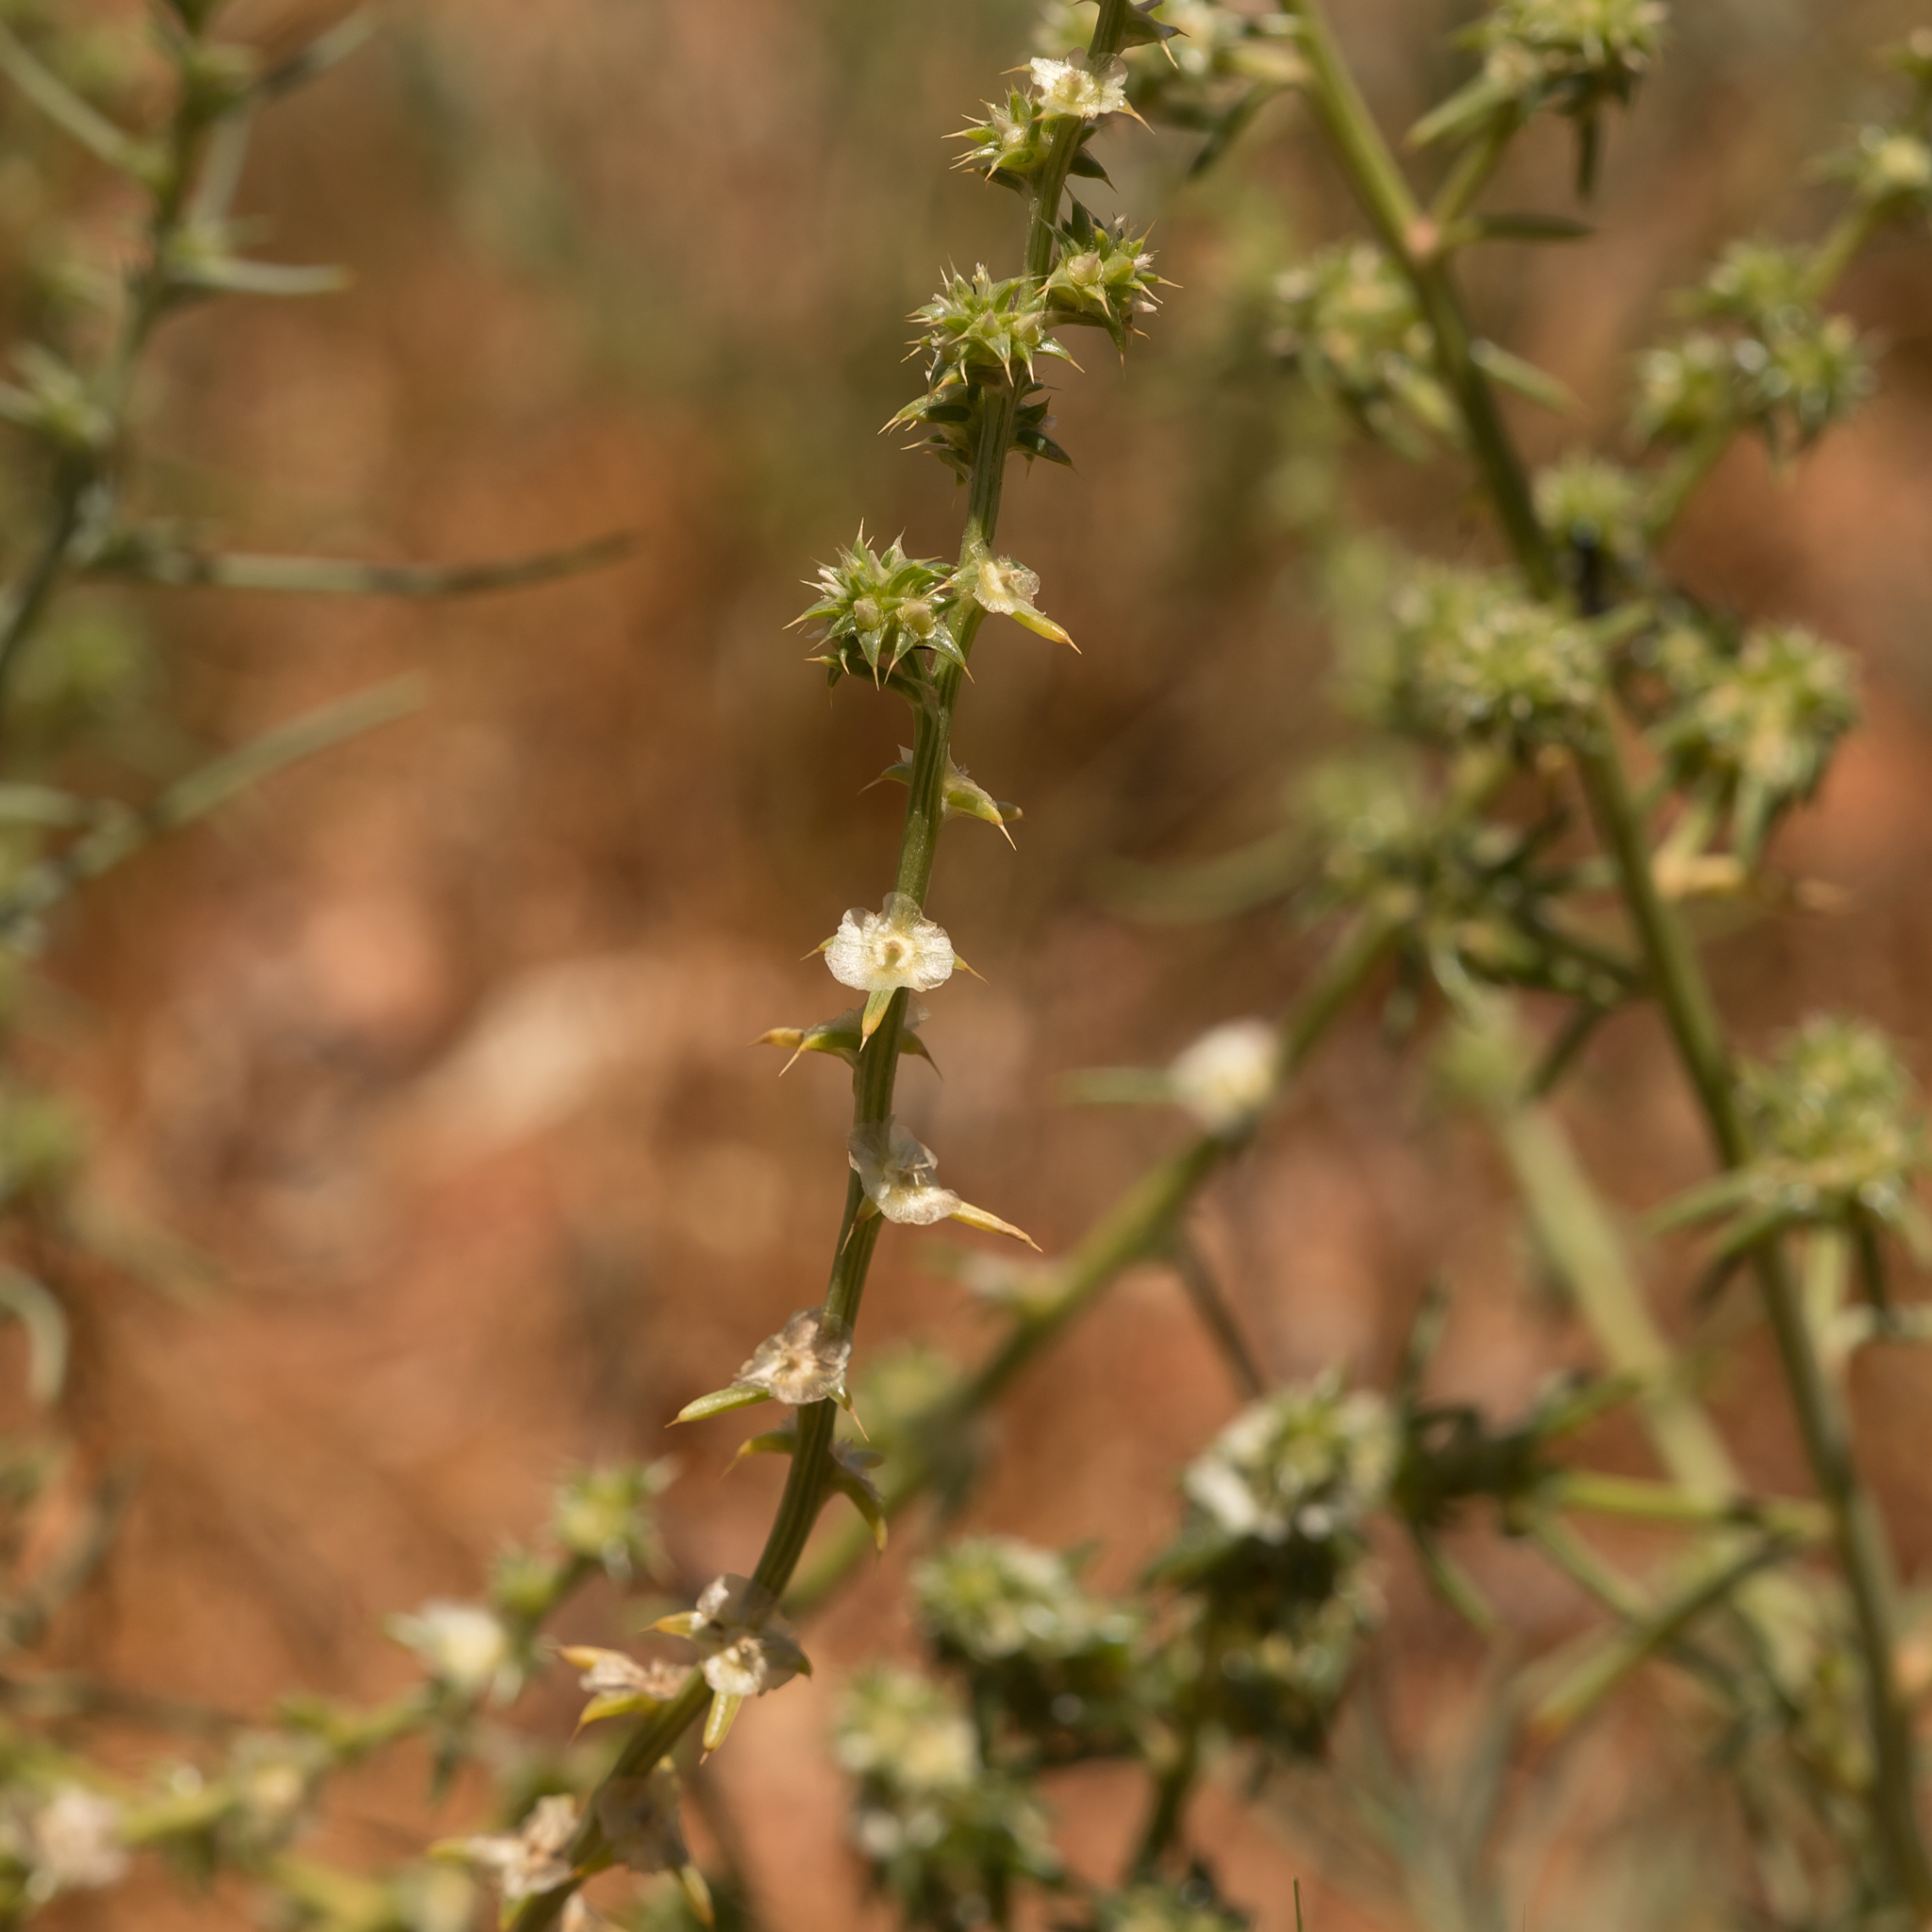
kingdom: Plantae
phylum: Tracheophyta
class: Magnoliopsida
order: Caryophyllales
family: Amaranthaceae
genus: Salsola
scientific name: Salsola australis
